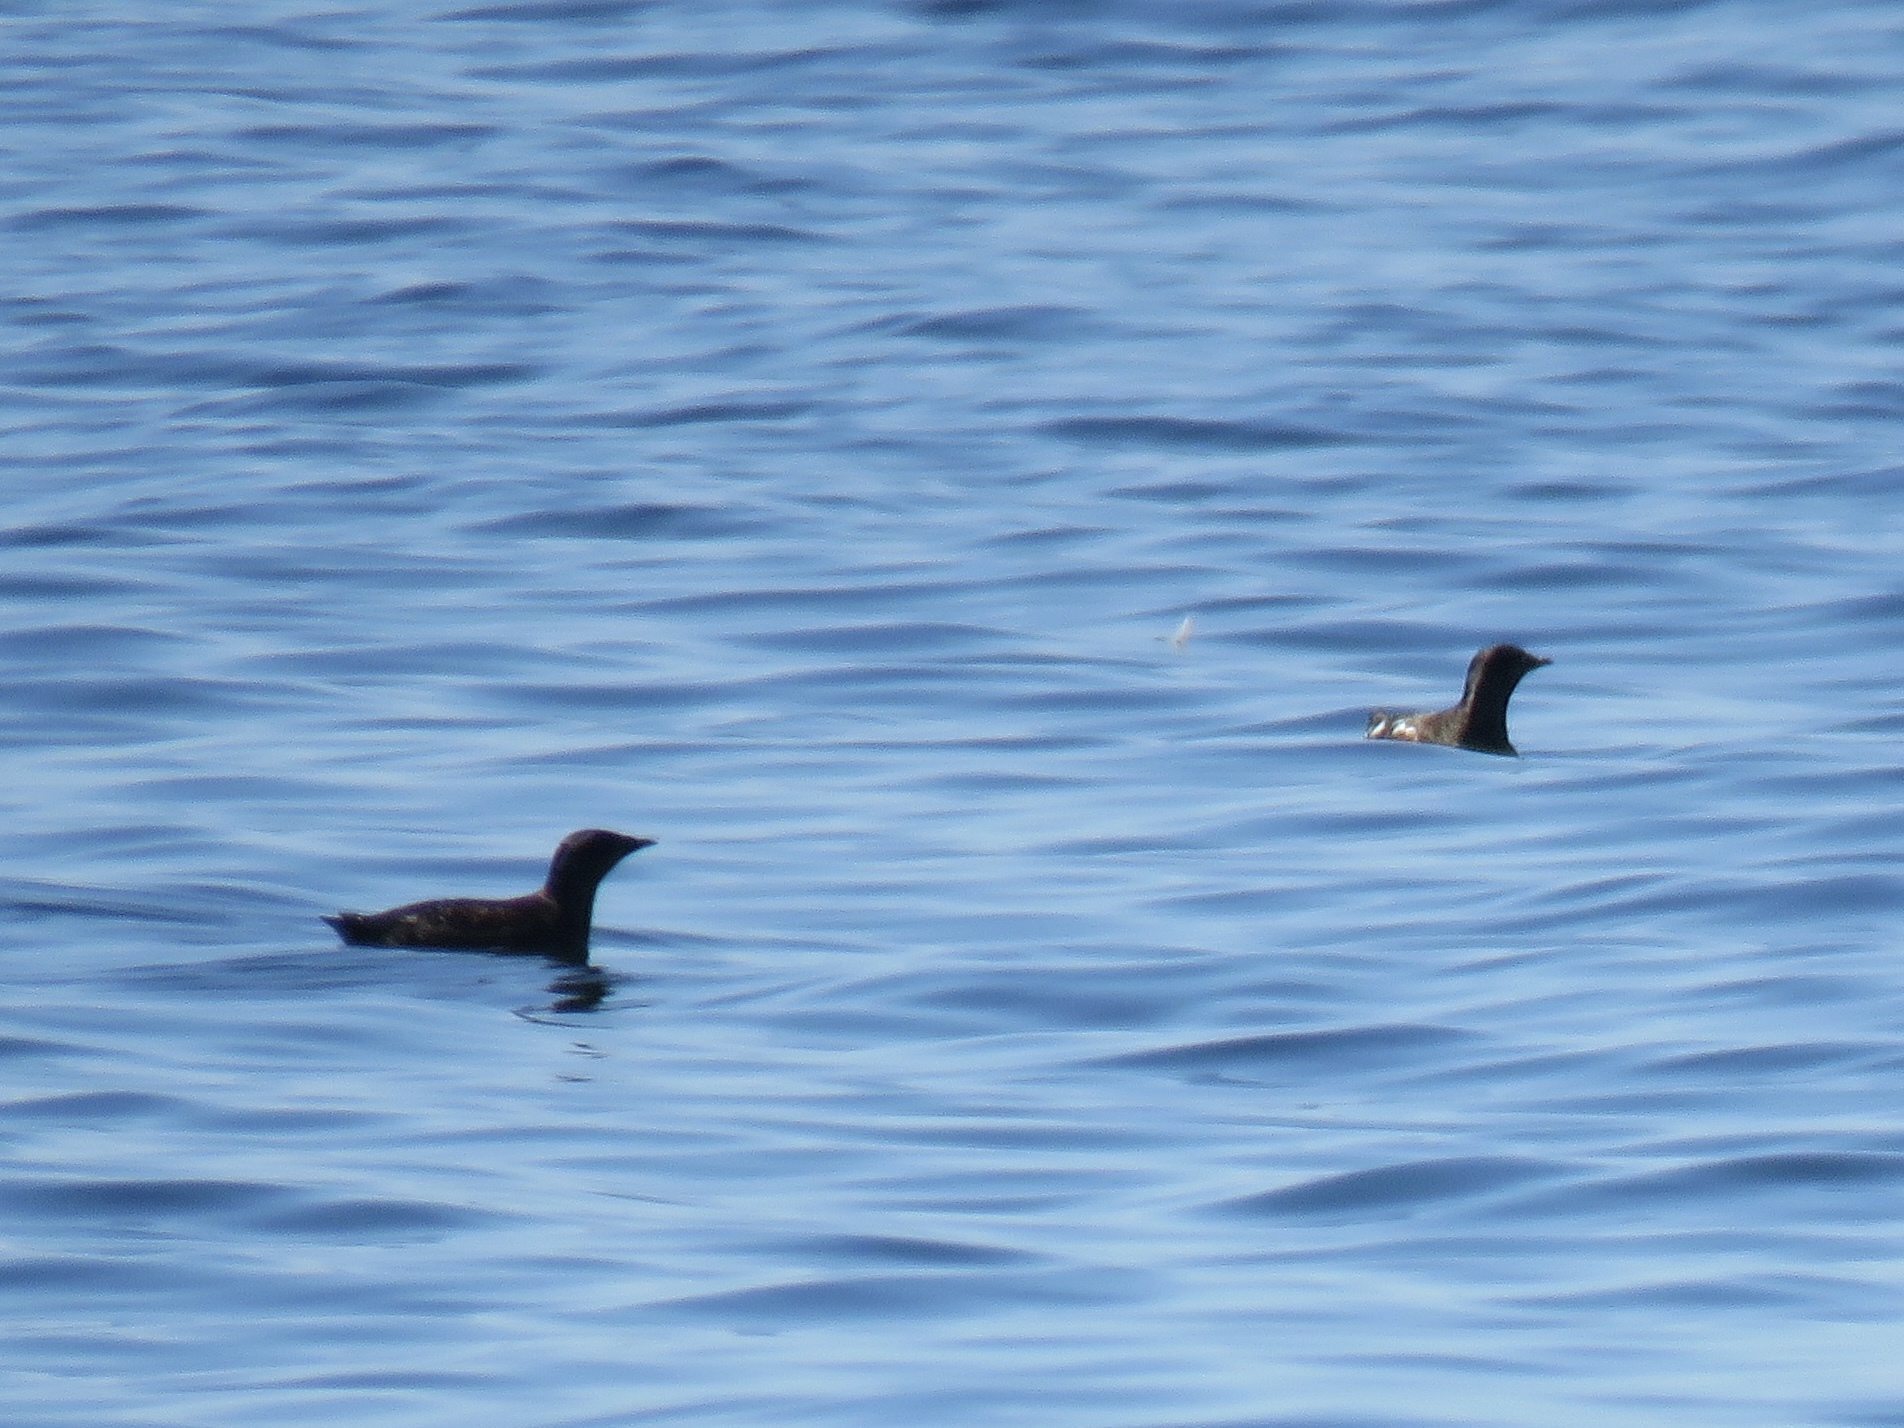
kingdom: Animalia
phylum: Chordata
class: Aves
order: Charadriiformes
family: Alcidae
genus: Brachyramphus
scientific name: Brachyramphus marmoratus
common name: Marbled murrelet
